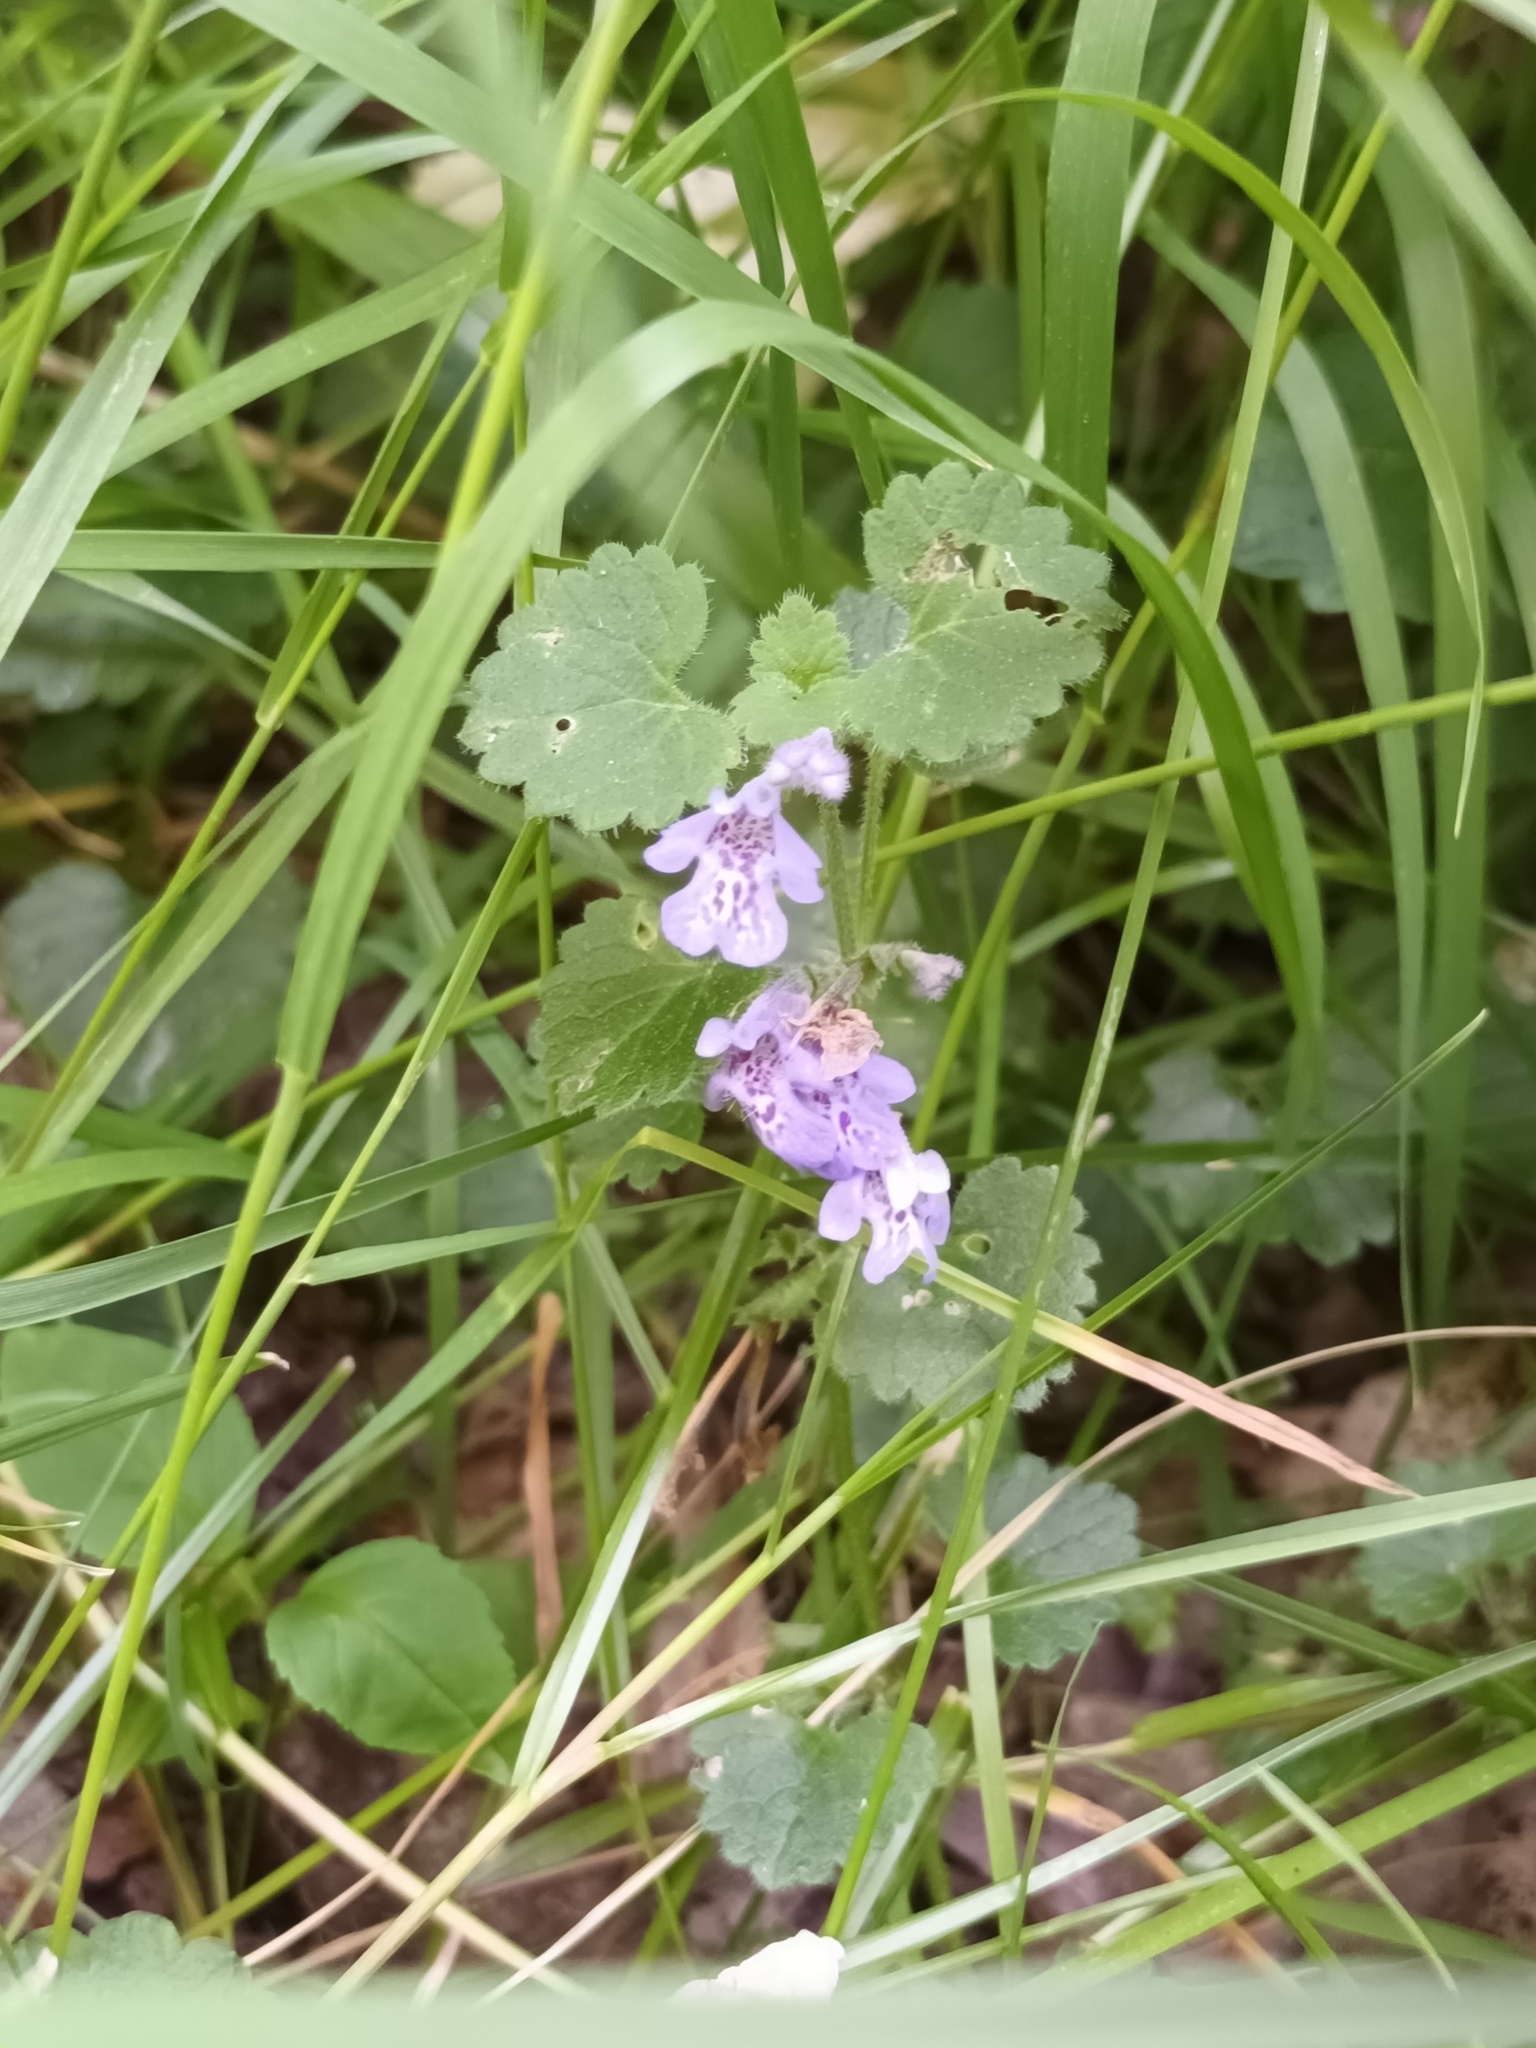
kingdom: Plantae
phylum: Tracheophyta
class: Magnoliopsida
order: Lamiales
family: Lamiaceae
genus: Glechoma
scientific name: Glechoma hederacea
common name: Ground ivy
